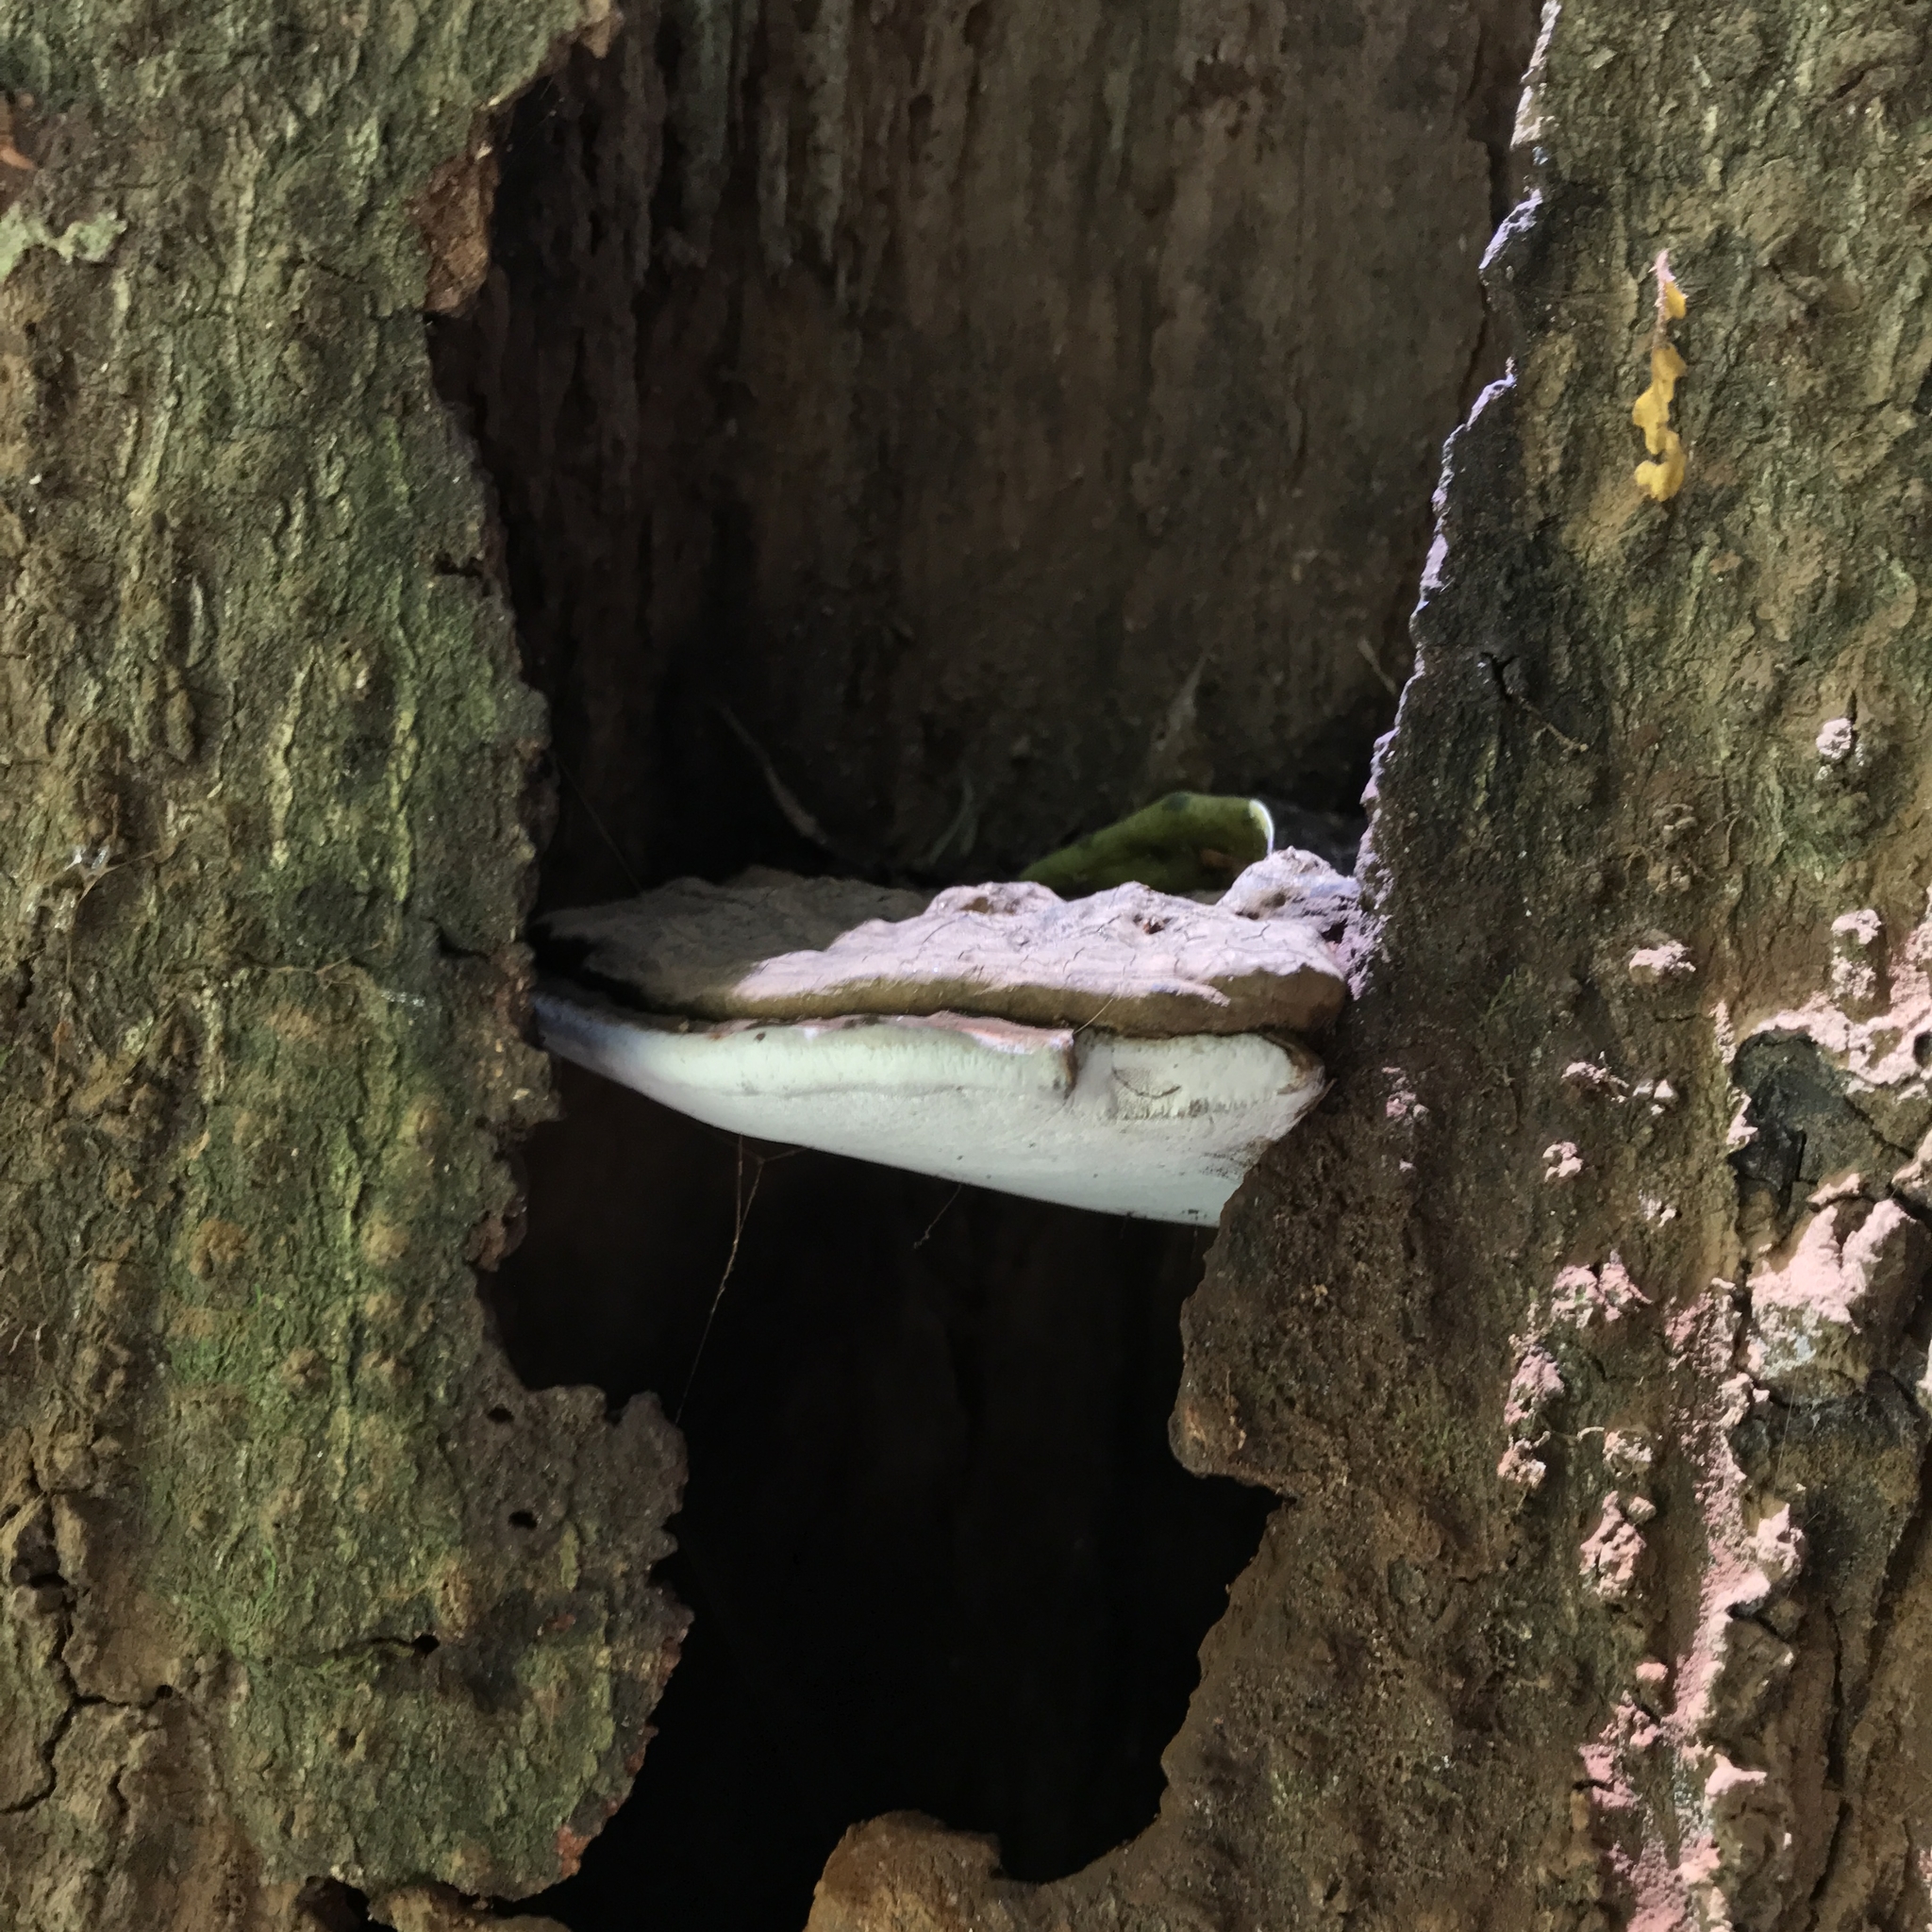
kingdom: Fungi
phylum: Basidiomycota
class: Agaricomycetes
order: Polyporales
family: Polyporaceae
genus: Ganoderma
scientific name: Ganoderma australe
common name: Southern bracket
